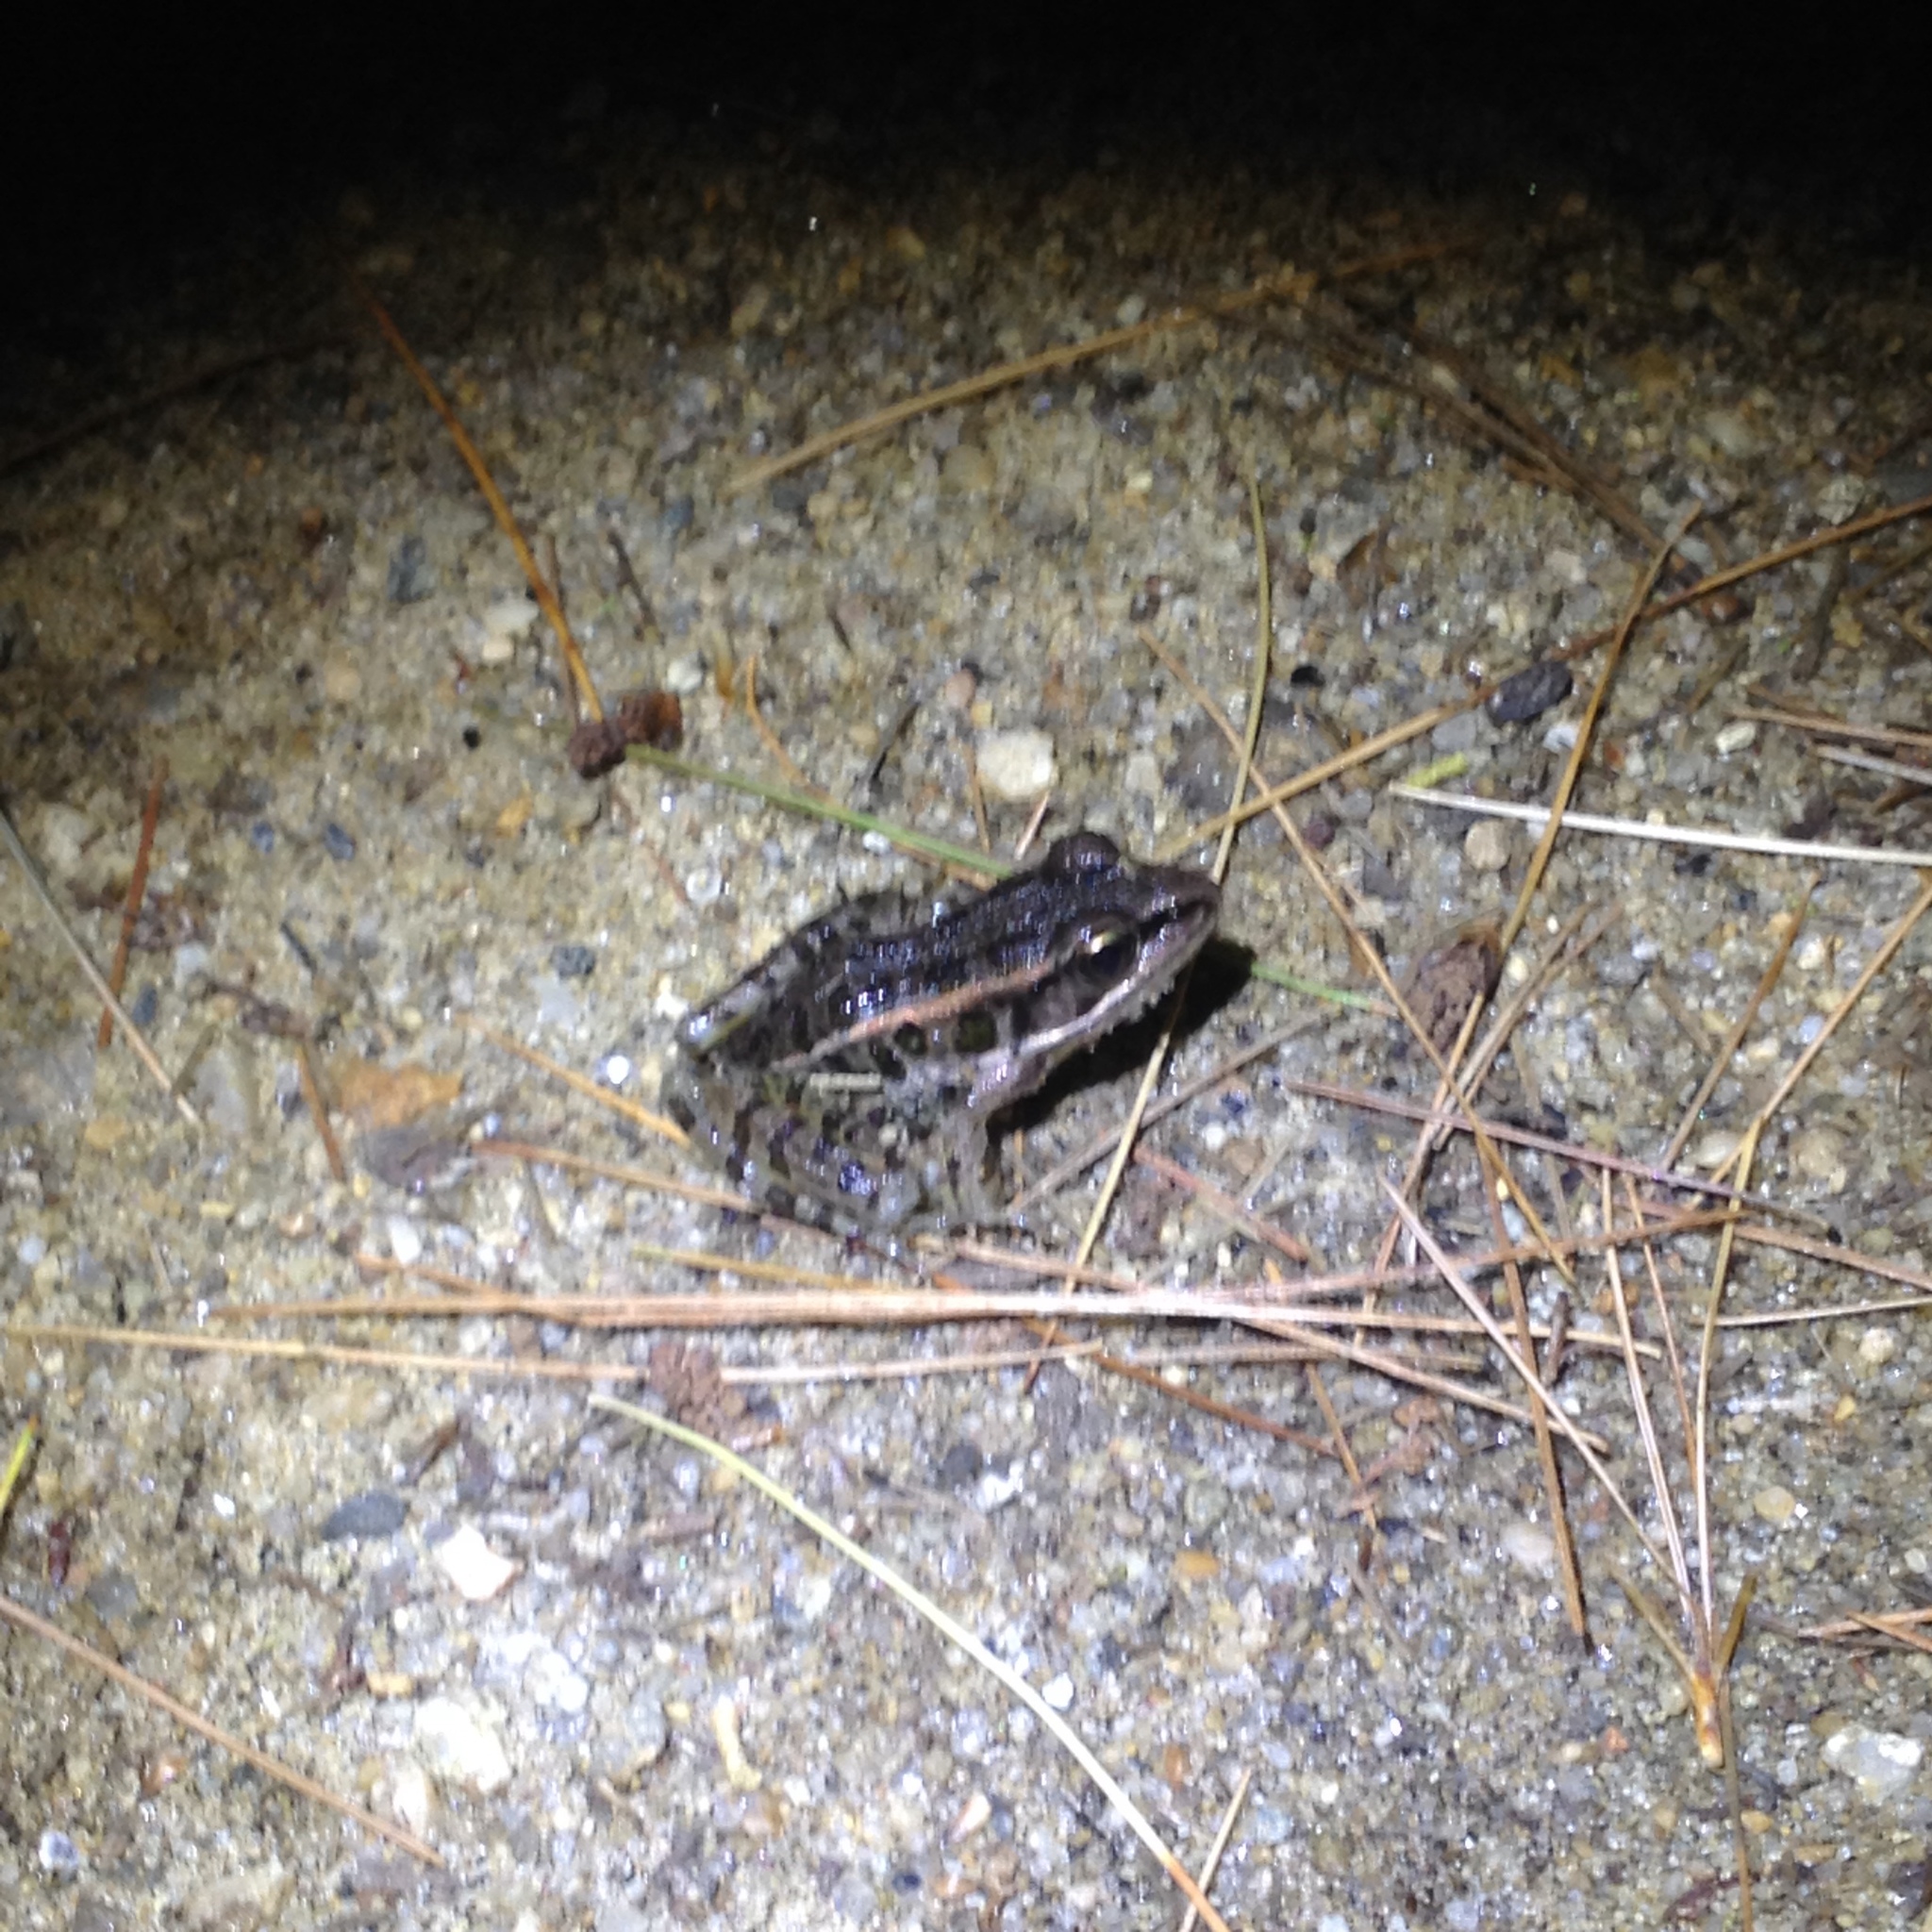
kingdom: Animalia
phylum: Chordata
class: Amphibia
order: Anura
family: Ranidae
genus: Lithobates
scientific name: Lithobates palustris
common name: Pickerel frog
